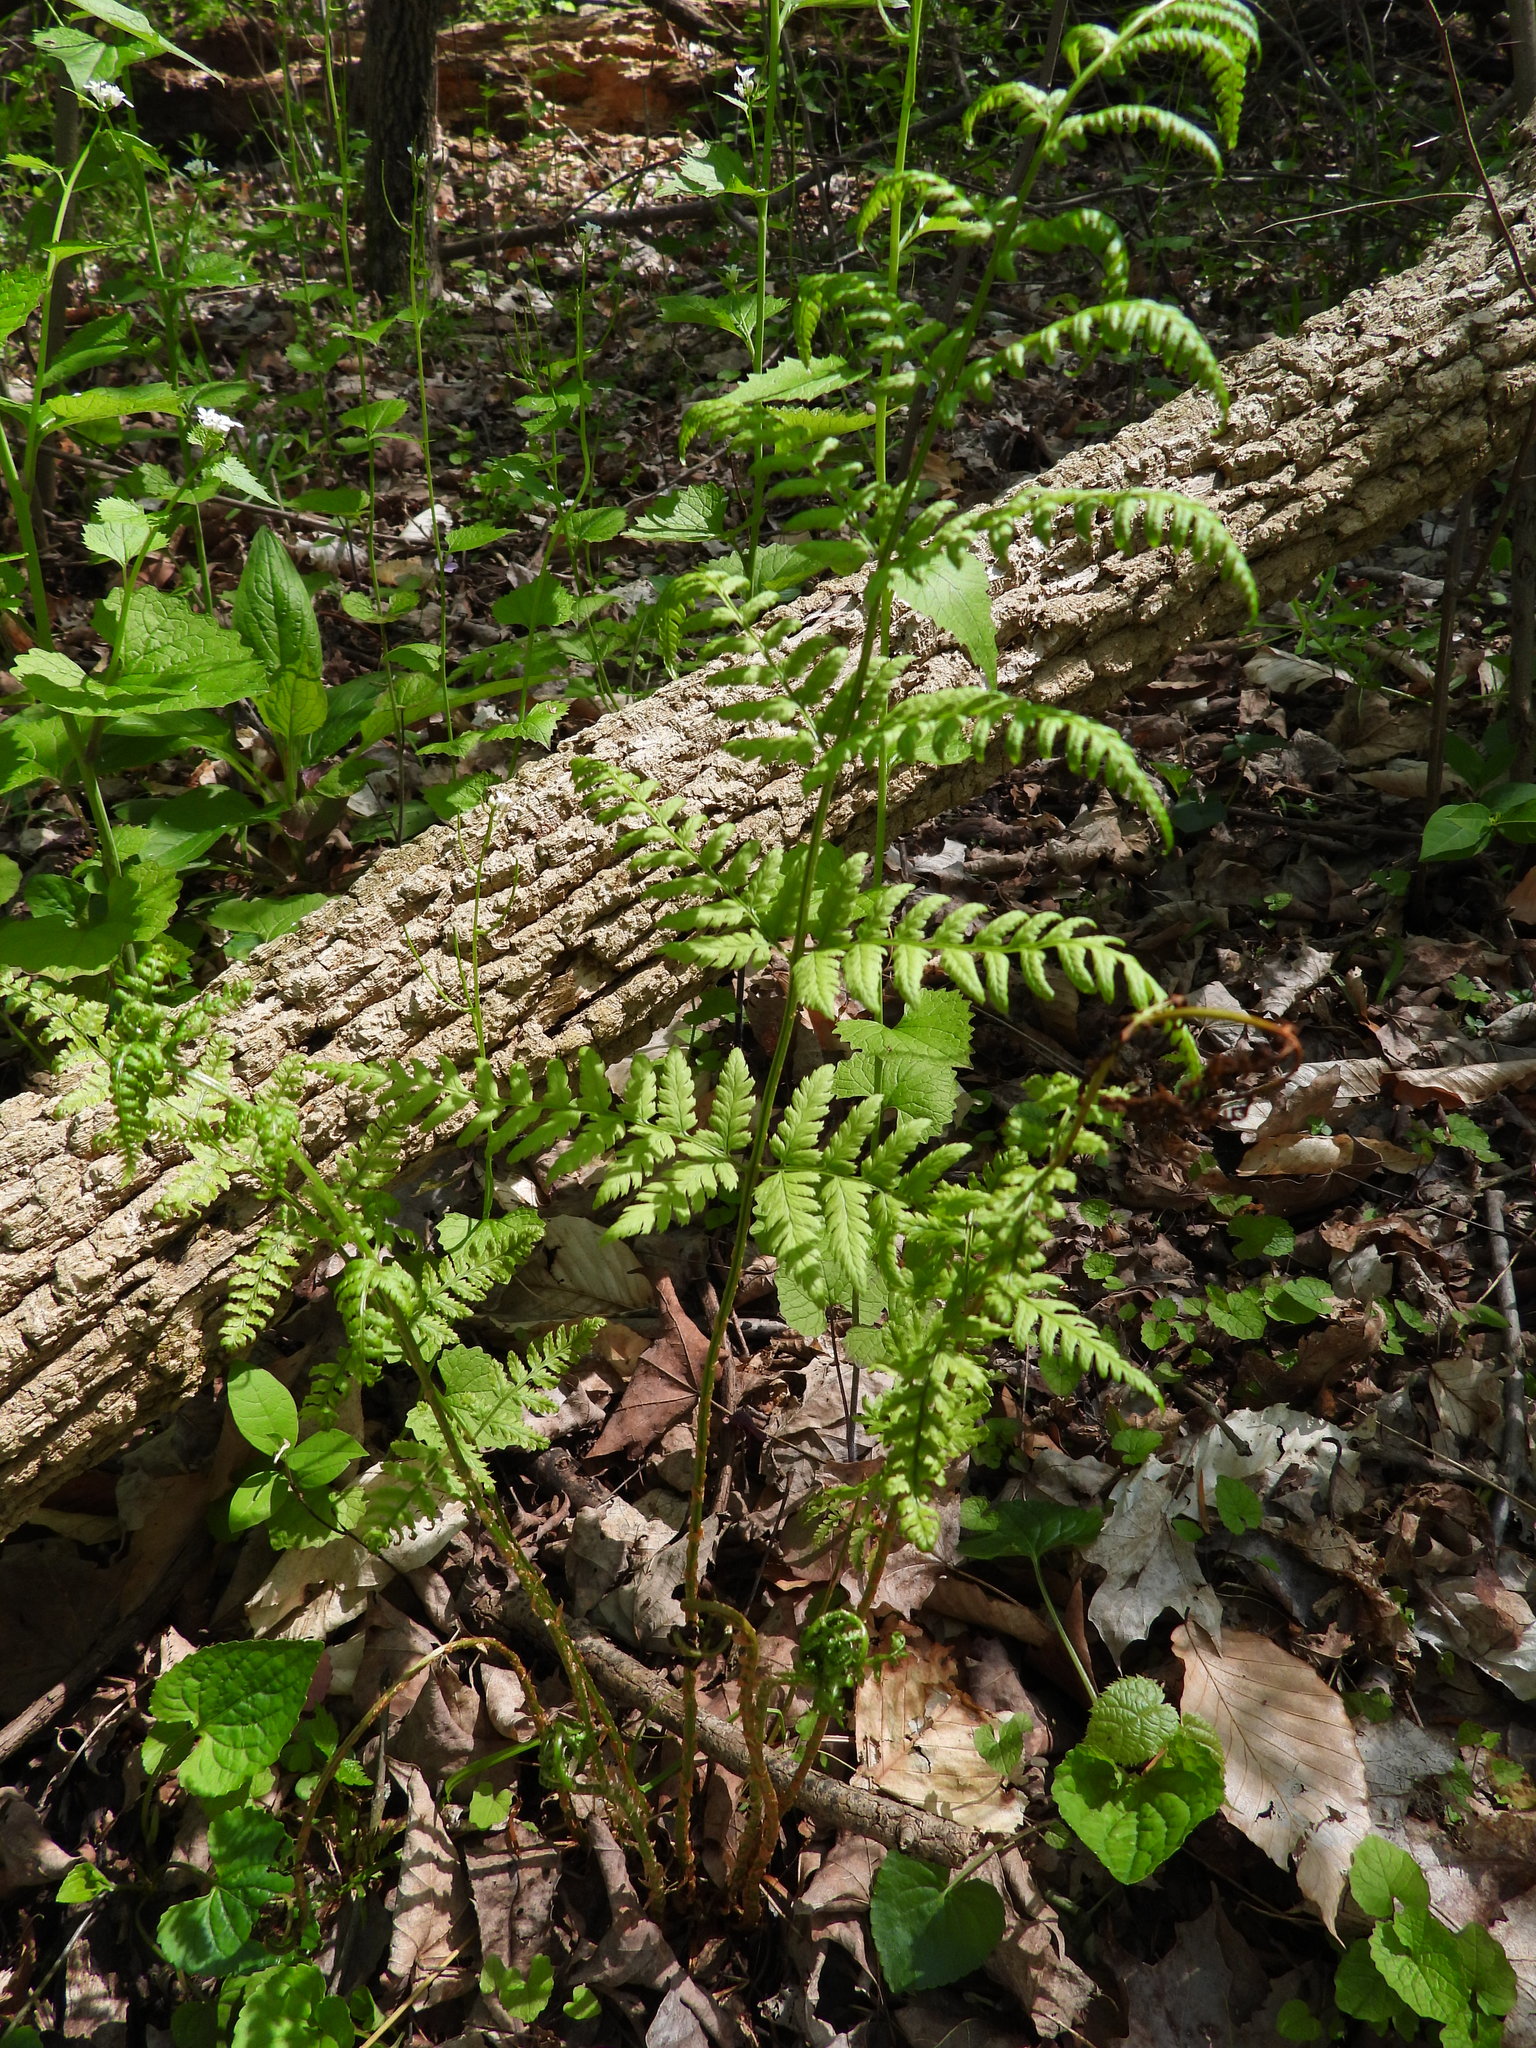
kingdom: Plantae
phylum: Tracheophyta
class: Polypodiopsida
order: Polypodiales
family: Dryopteridaceae
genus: Dryopteris
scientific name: Dryopteris carthusiana
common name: Narrow buckler-fern
